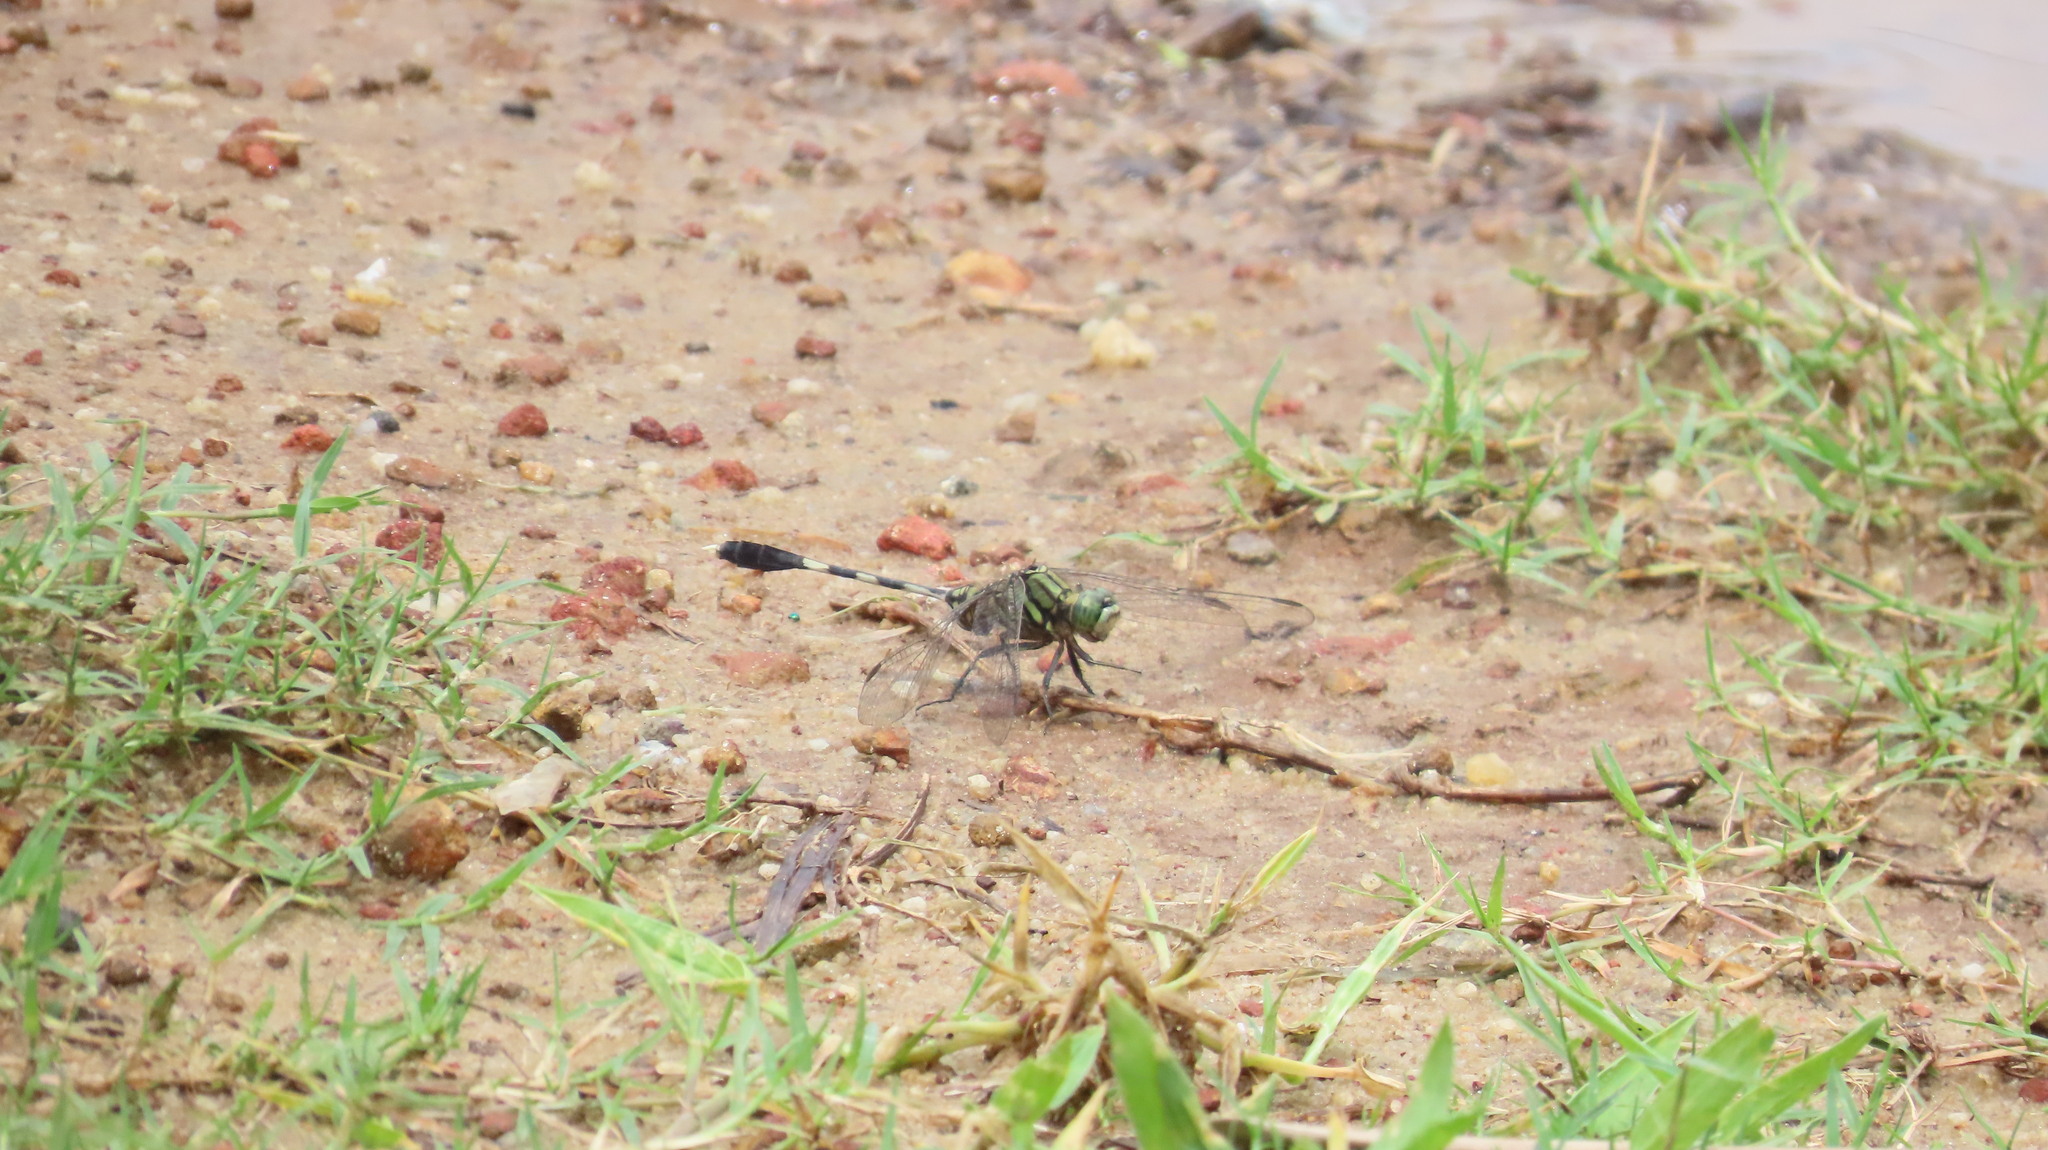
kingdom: Animalia
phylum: Arthropoda
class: Insecta
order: Odonata
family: Libellulidae
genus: Orthetrum
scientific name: Orthetrum sabina
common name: Slender skimmer
